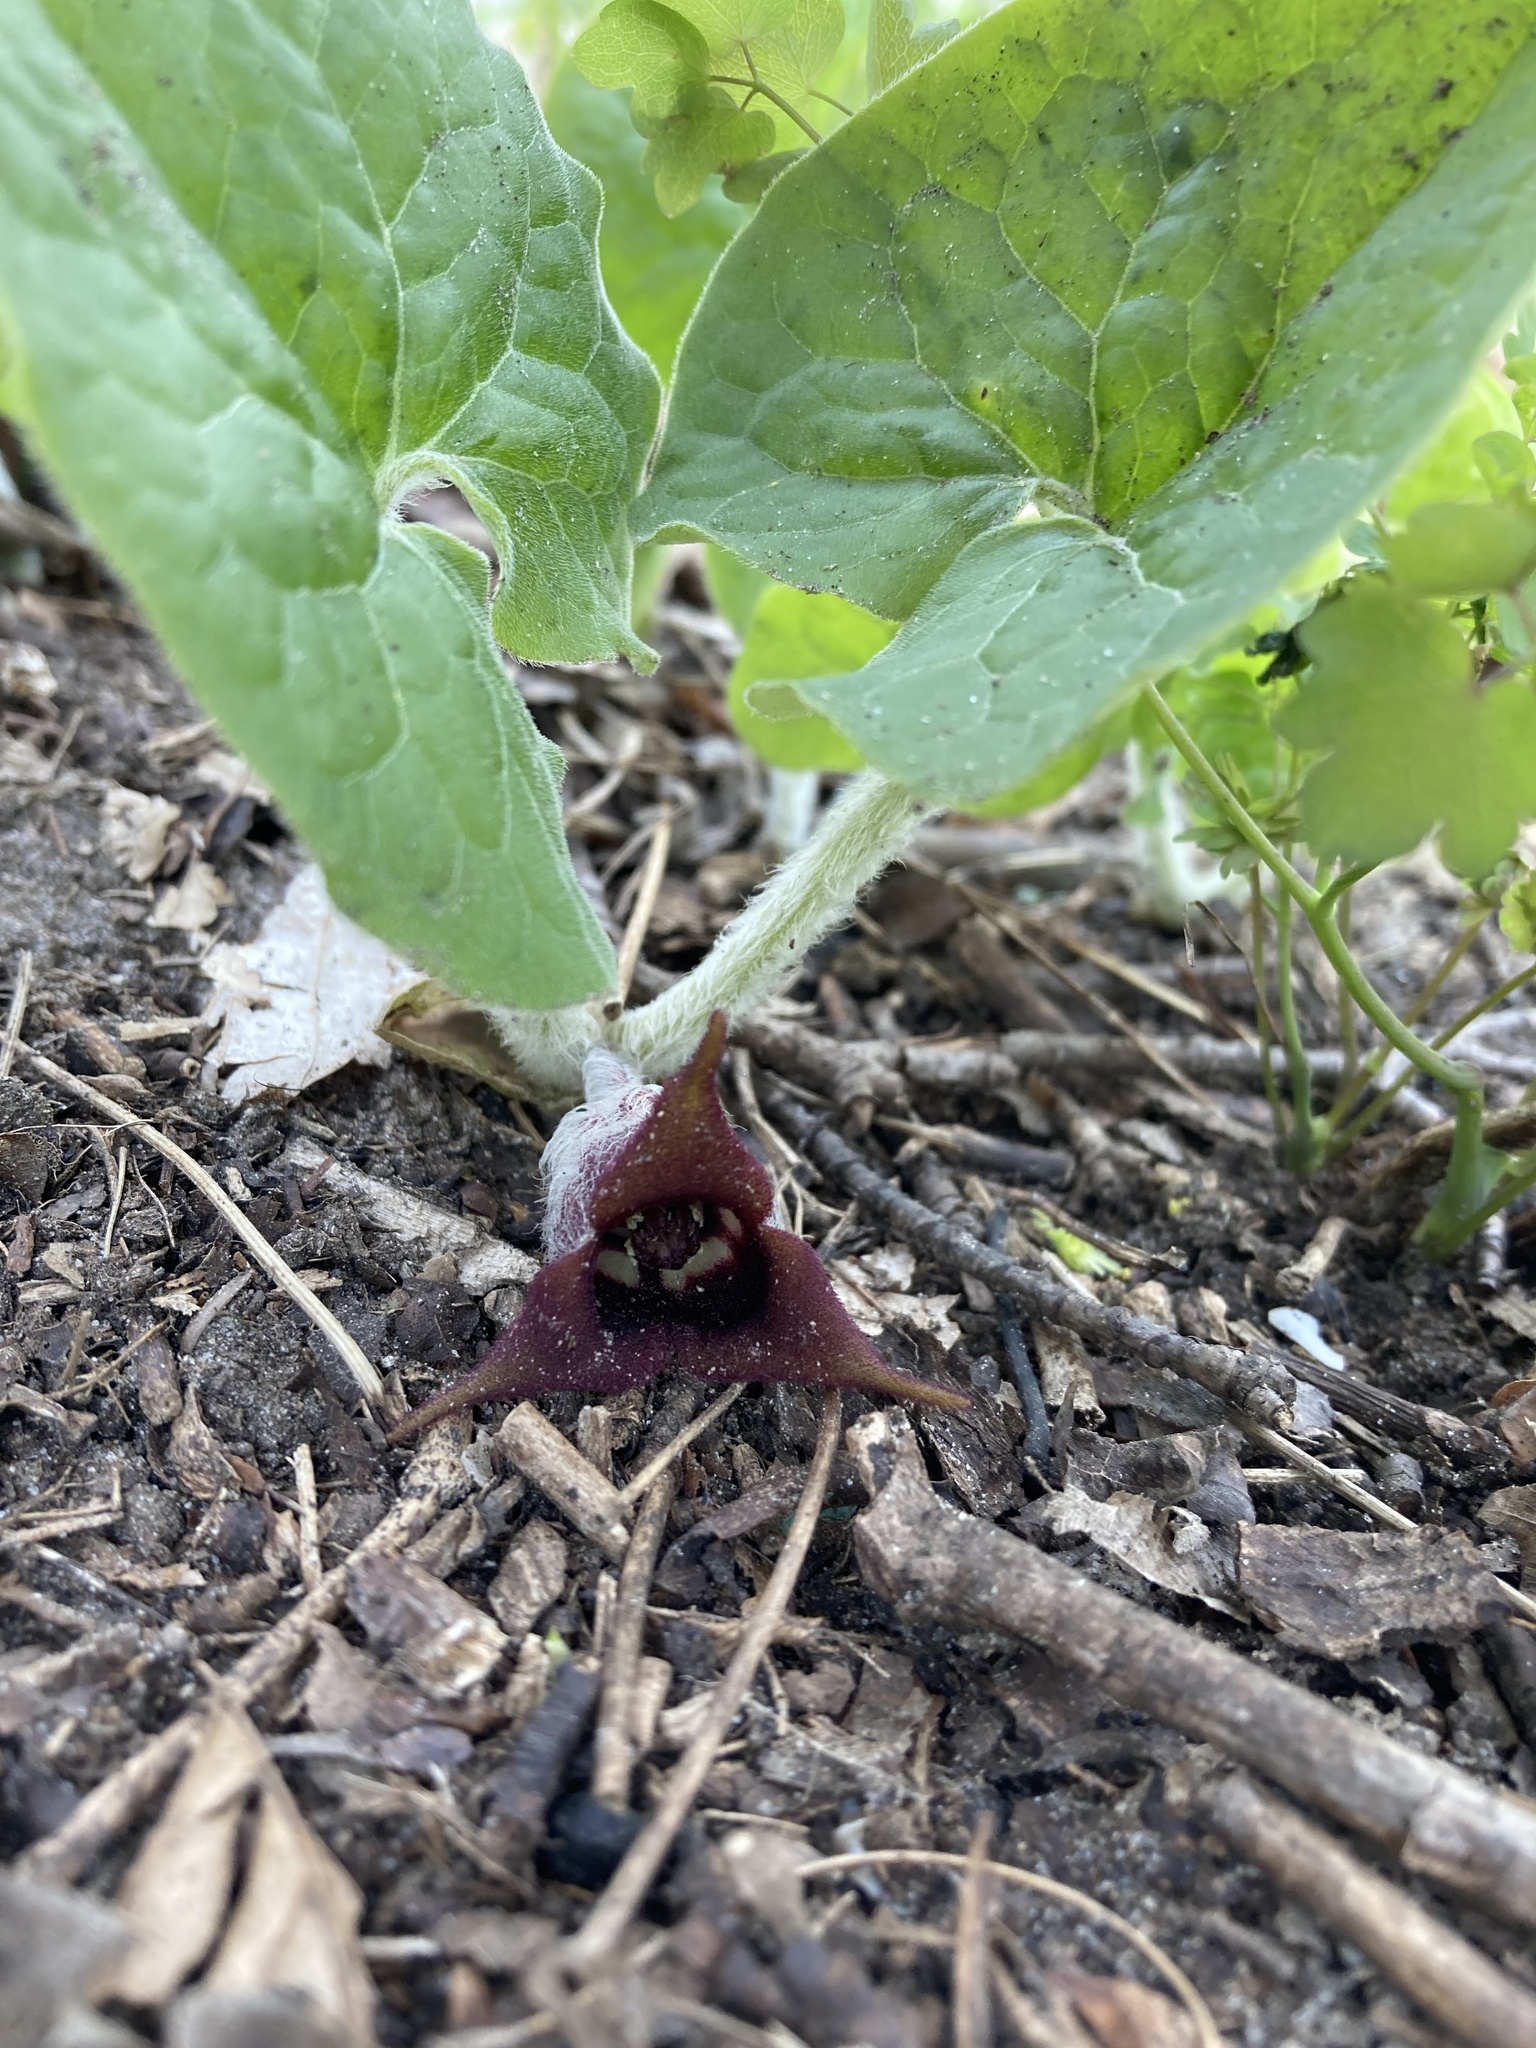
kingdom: Plantae
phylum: Tracheophyta
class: Magnoliopsida
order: Piperales
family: Aristolochiaceae
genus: Asarum
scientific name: Asarum canadense
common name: Wild ginger
